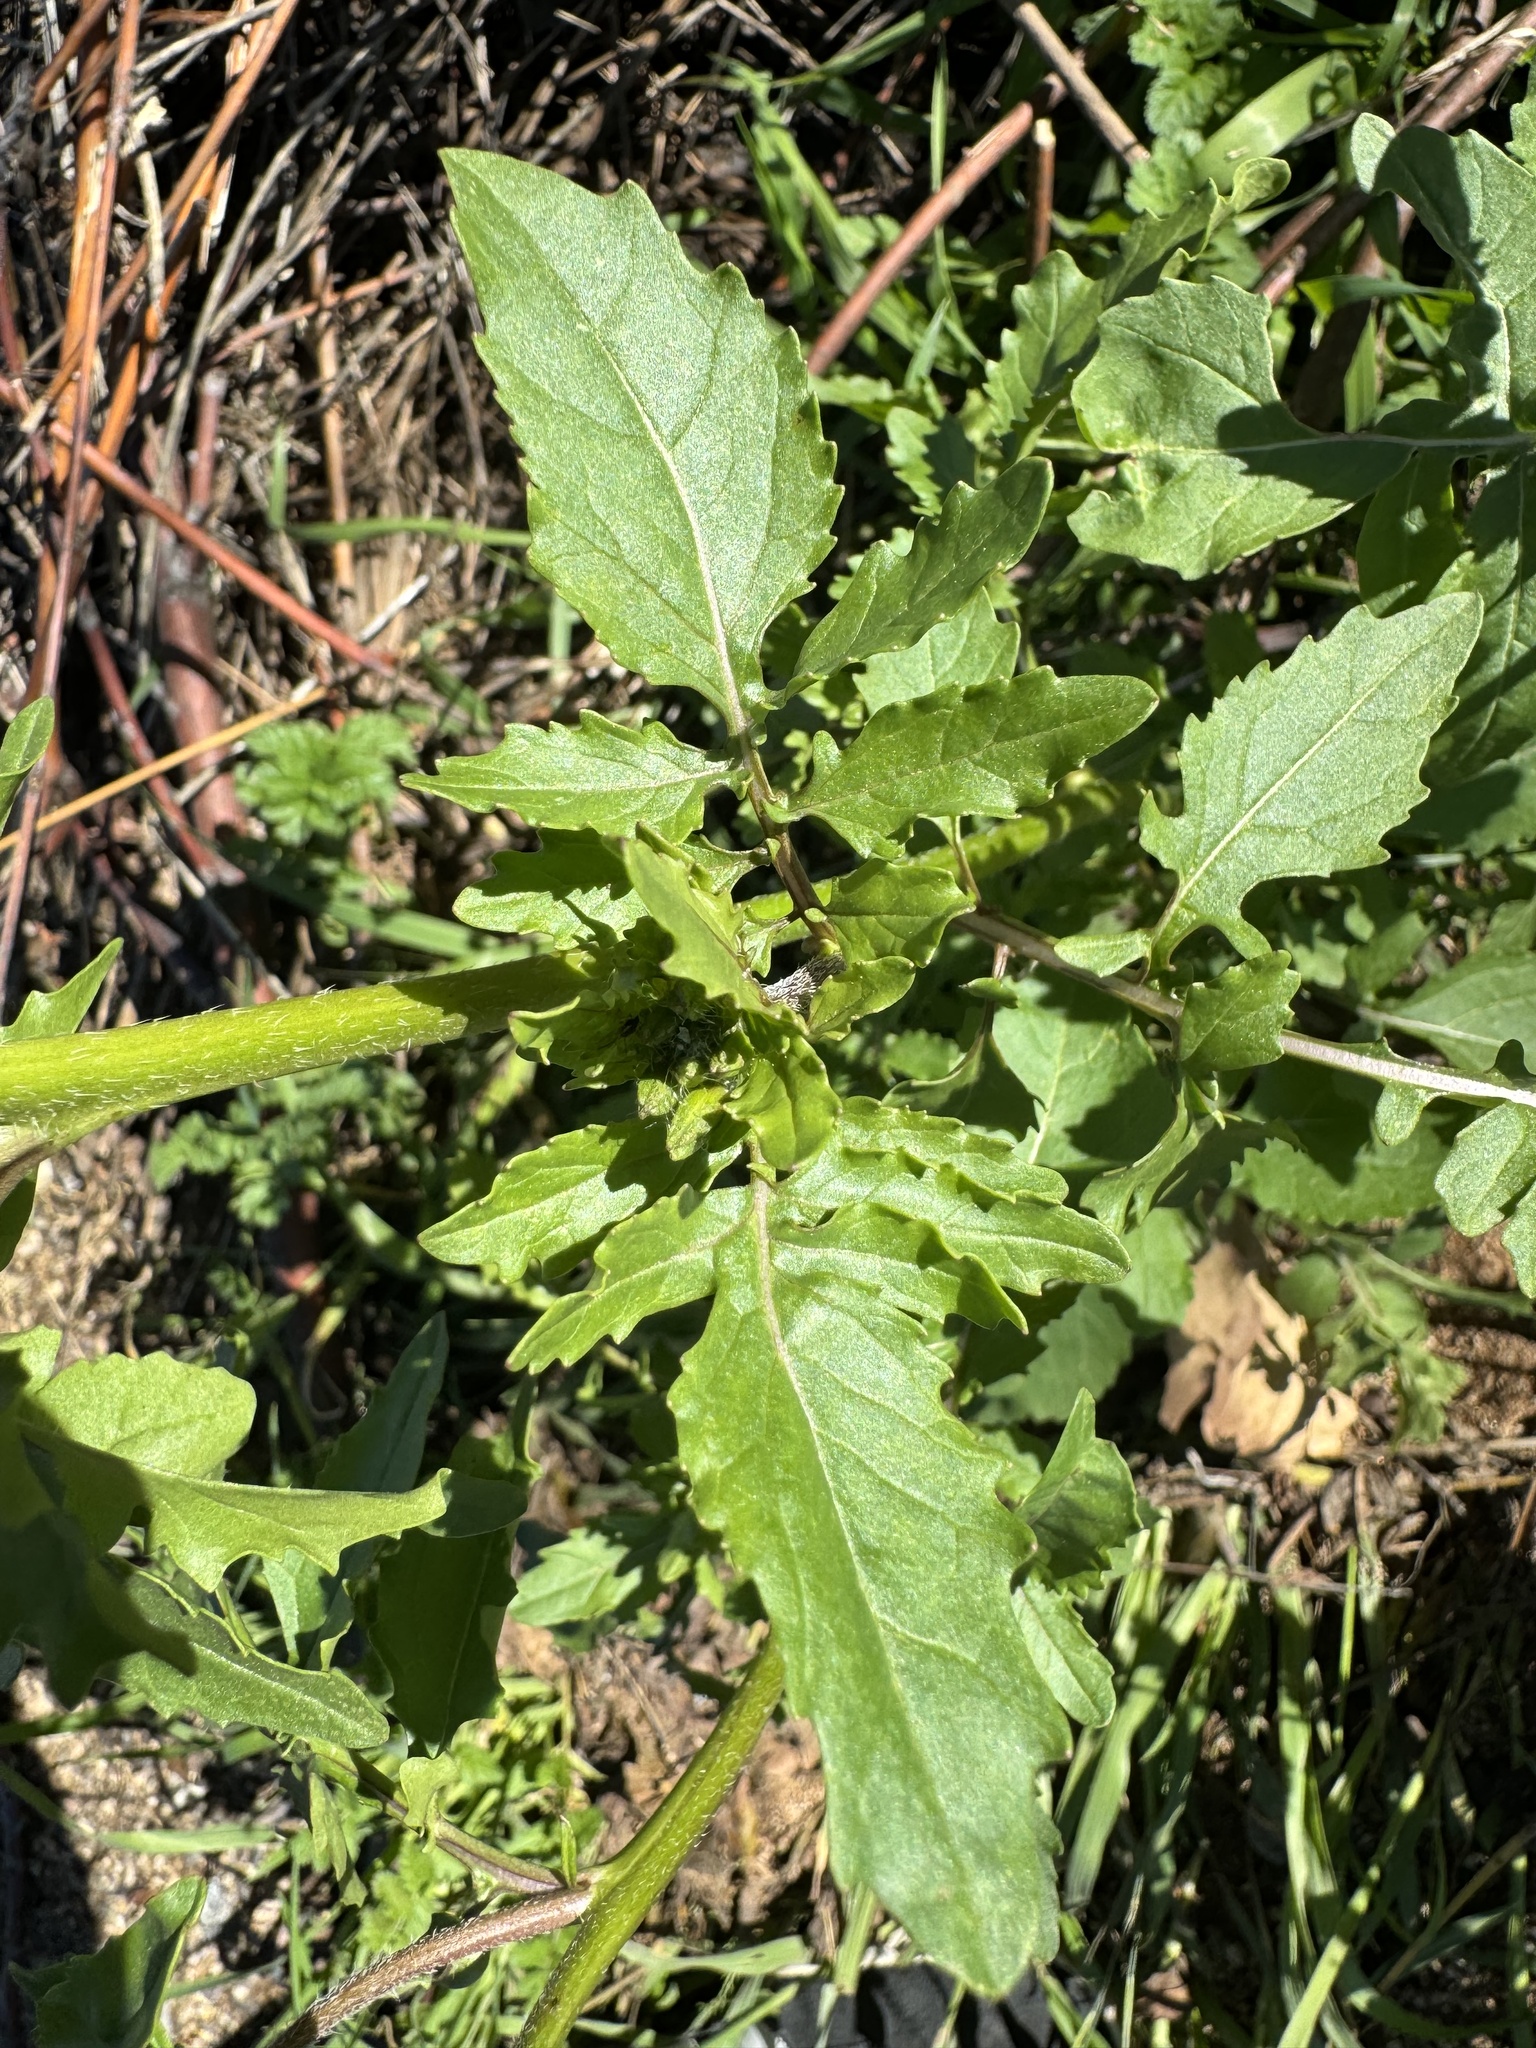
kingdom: Plantae
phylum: Tracheophyta
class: Magnoliopsida
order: Brassicales
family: Brassicaceae
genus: Eruca
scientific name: Eruca vesicaria
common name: Garden rocket
